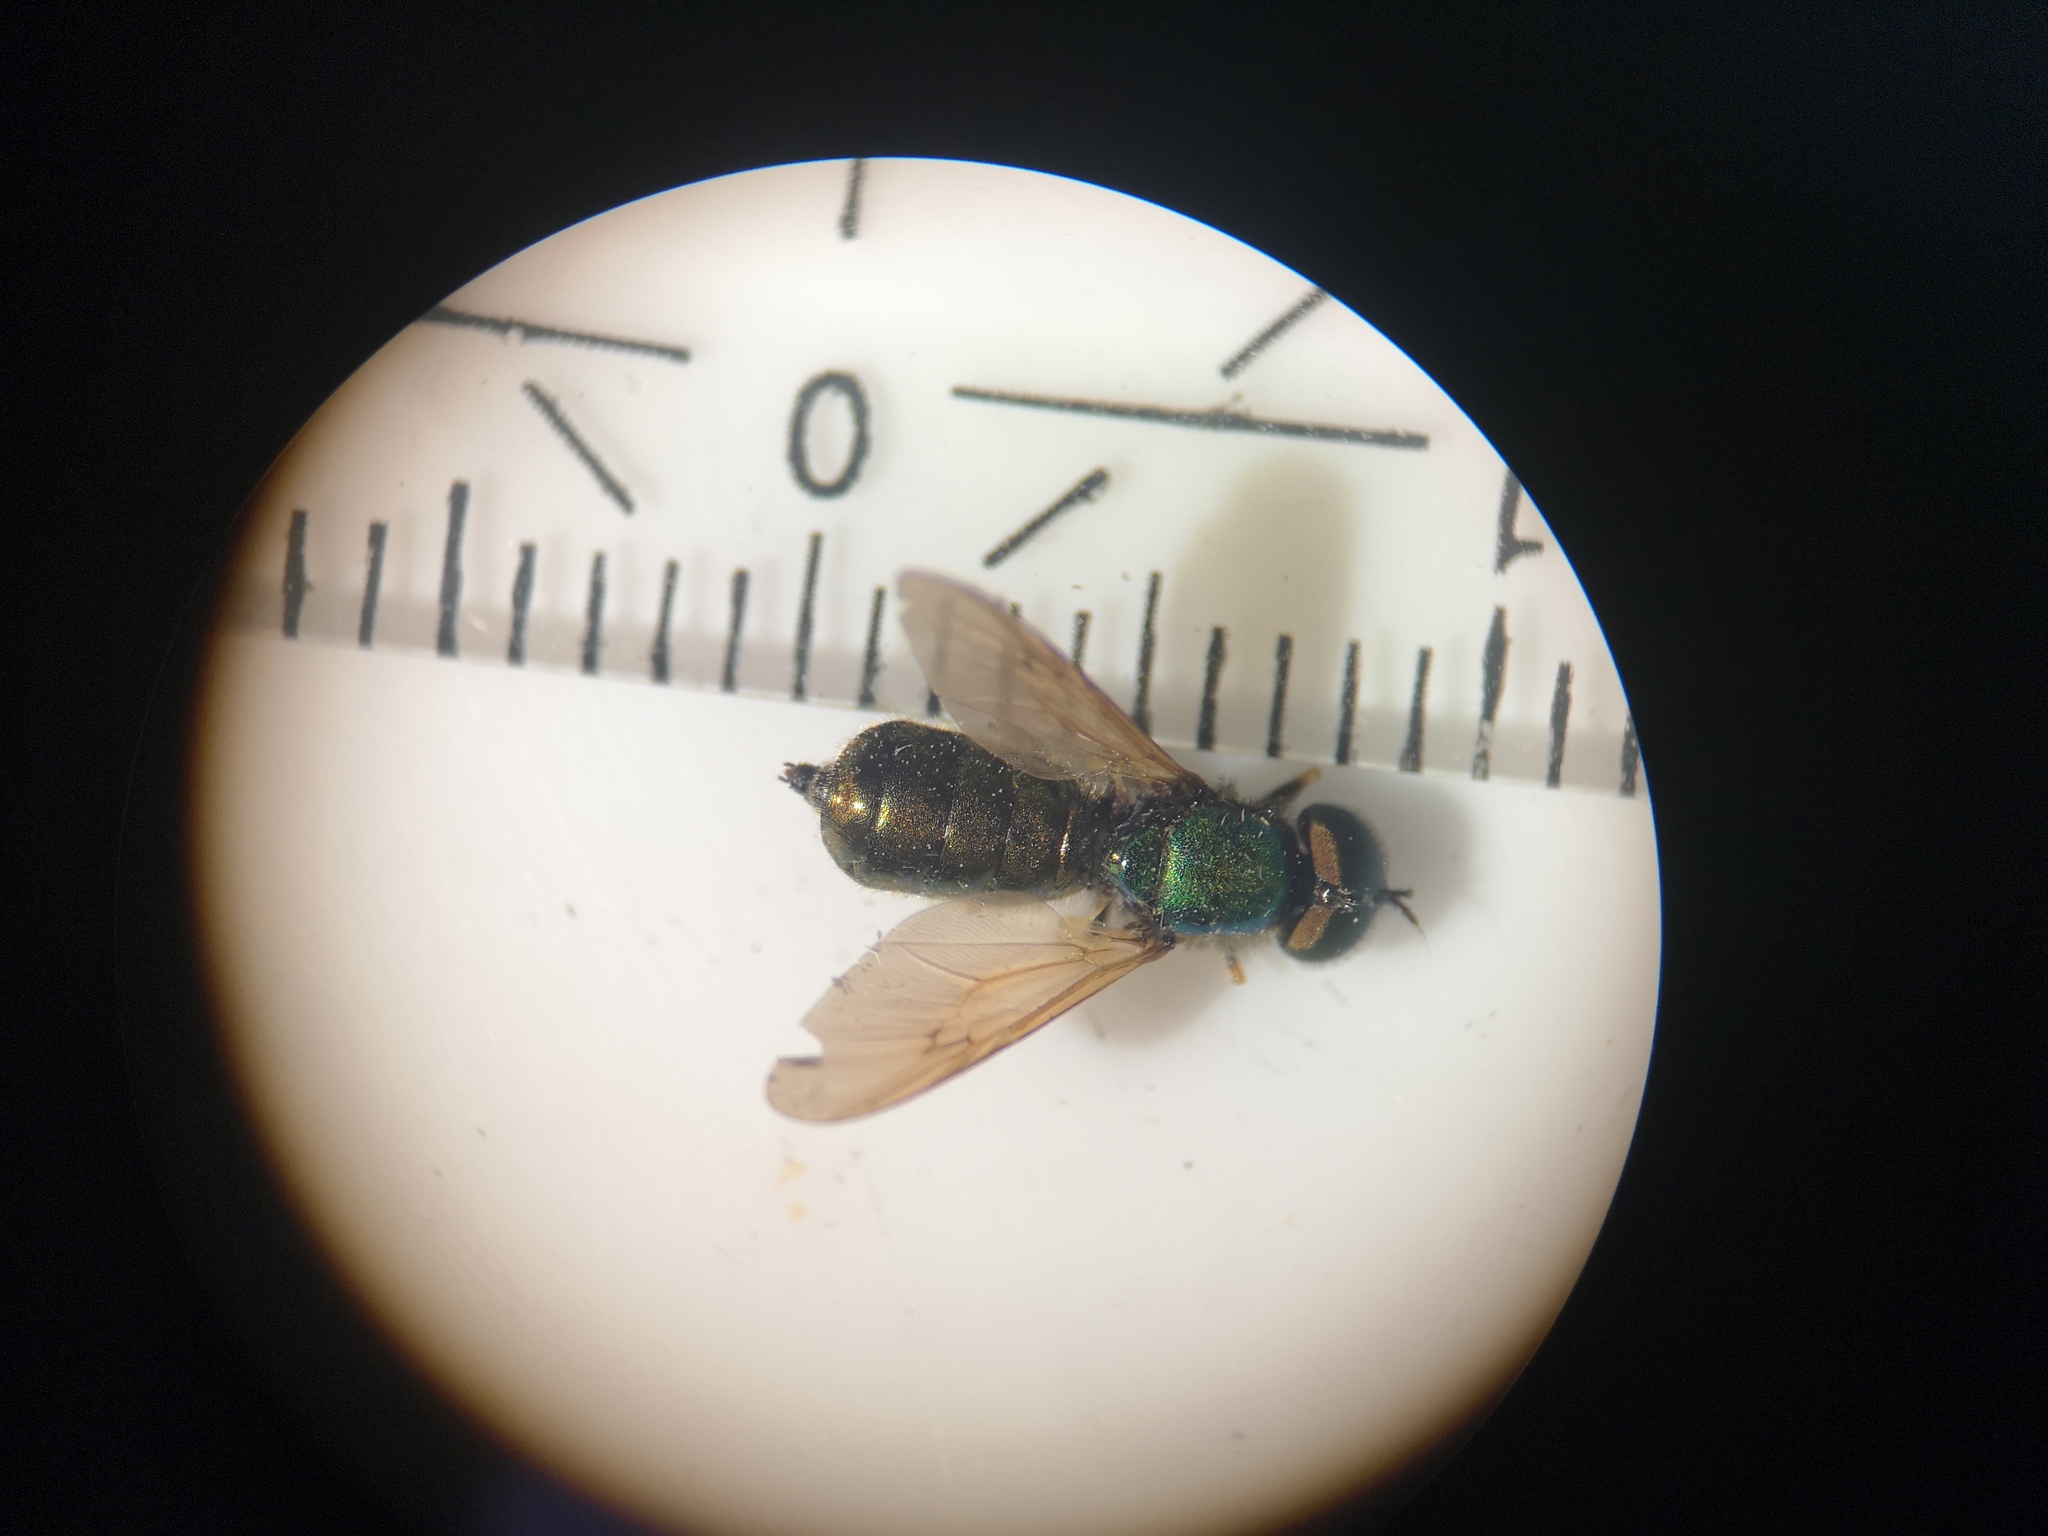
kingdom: Animalia
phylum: Arthropoda
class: Insecta
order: Diptera
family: Stratiomyidae
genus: Chloromyia
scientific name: Chloromyia formosa
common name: Soldier fly
